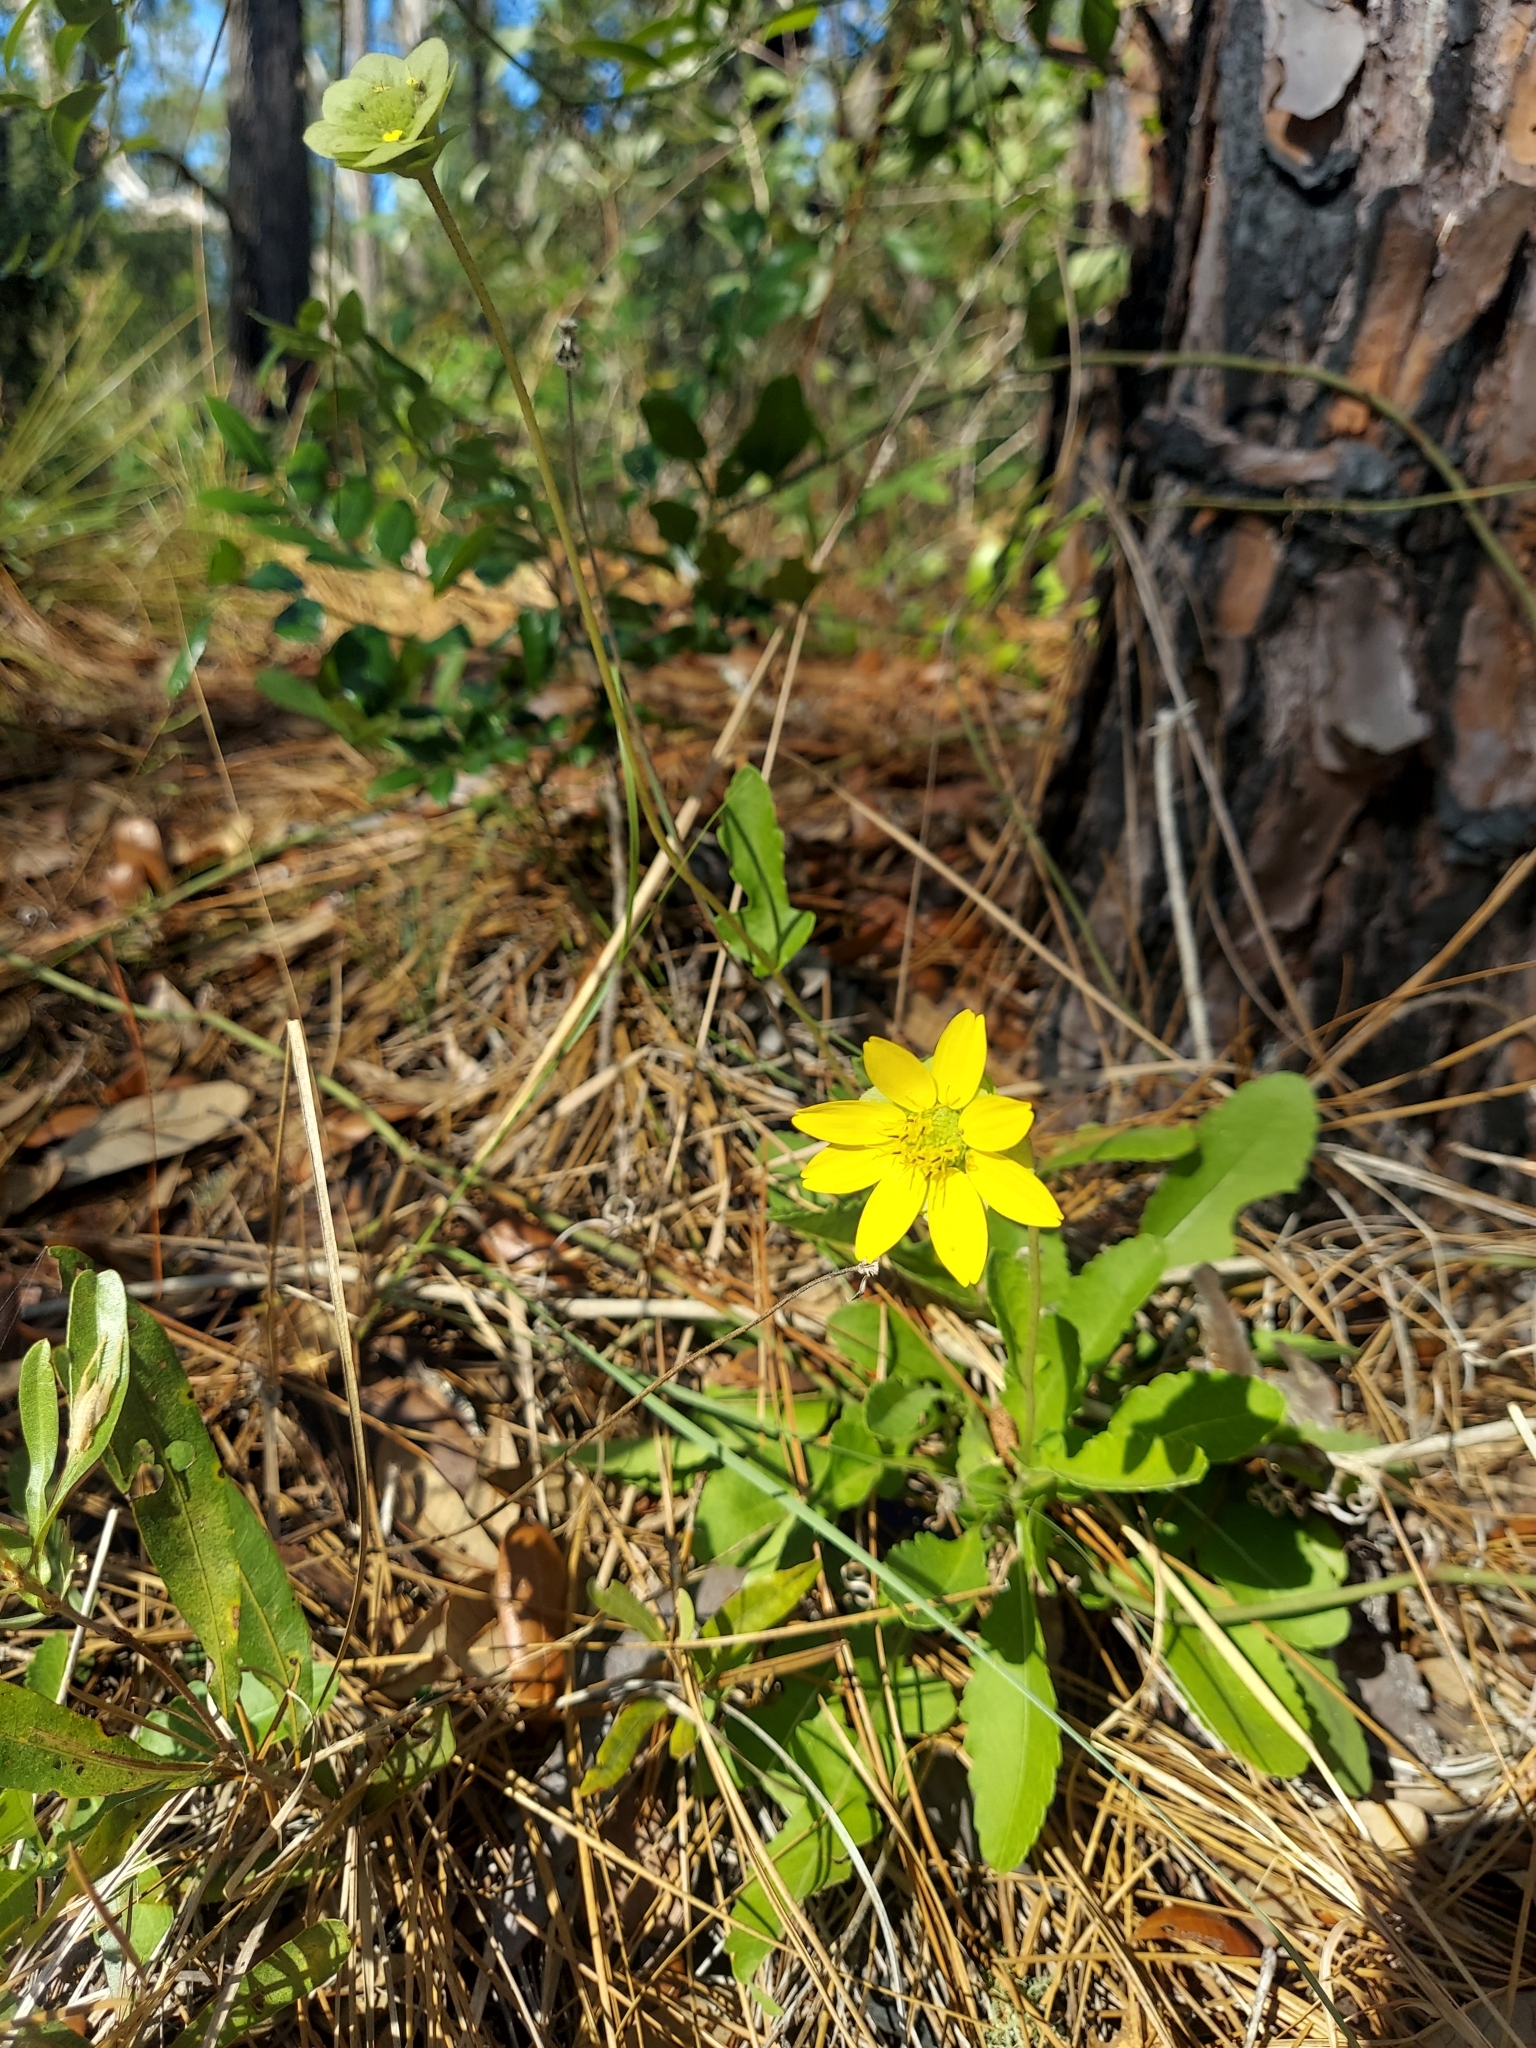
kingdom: Plantae
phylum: Tracheophyta
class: Magnoliopsida
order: Asterales
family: Asteraceae
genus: Berlandiera
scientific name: Berlandiera subacaulis
